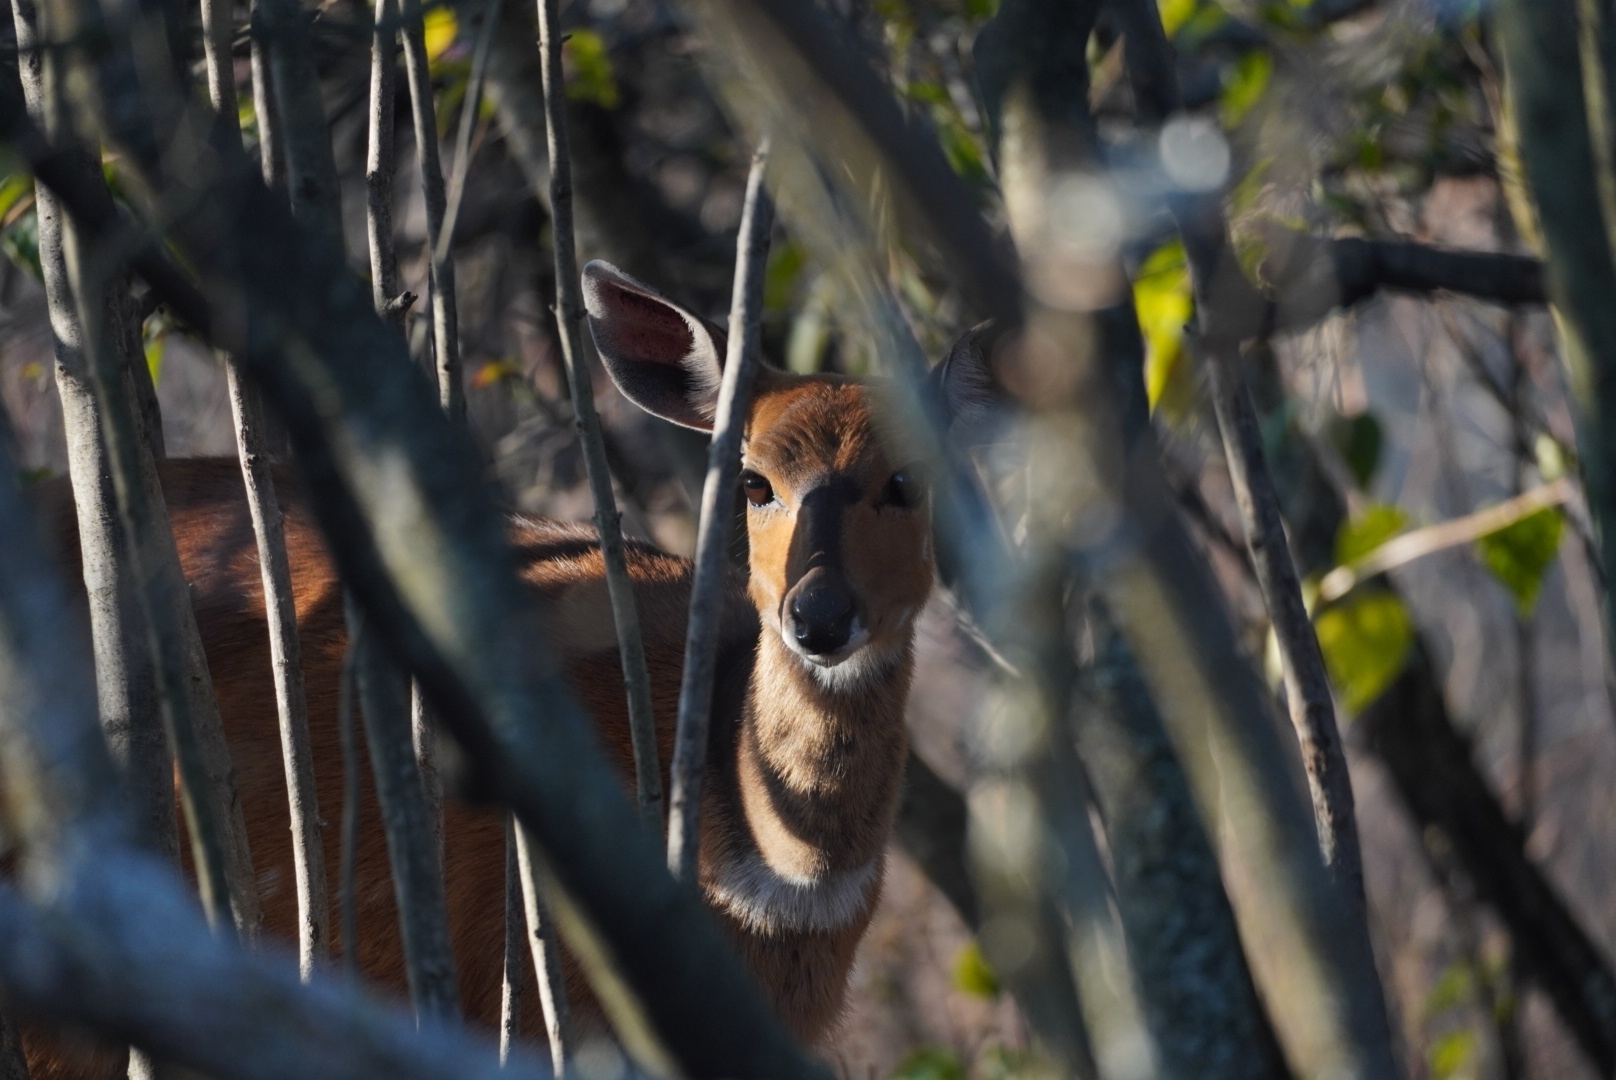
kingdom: Animalia
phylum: Chordata
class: Mammalia
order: Artiodactyla
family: Bovidae
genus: Tragelaphus
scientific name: Tragelaphus scriptus
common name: Bushbuck
